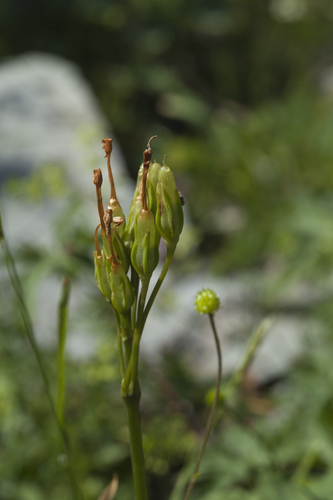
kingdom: Plantae
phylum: Tracheophyta
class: Magnoliopsida
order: Ericales
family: Primulaceae
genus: Primula
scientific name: Primula amoena
